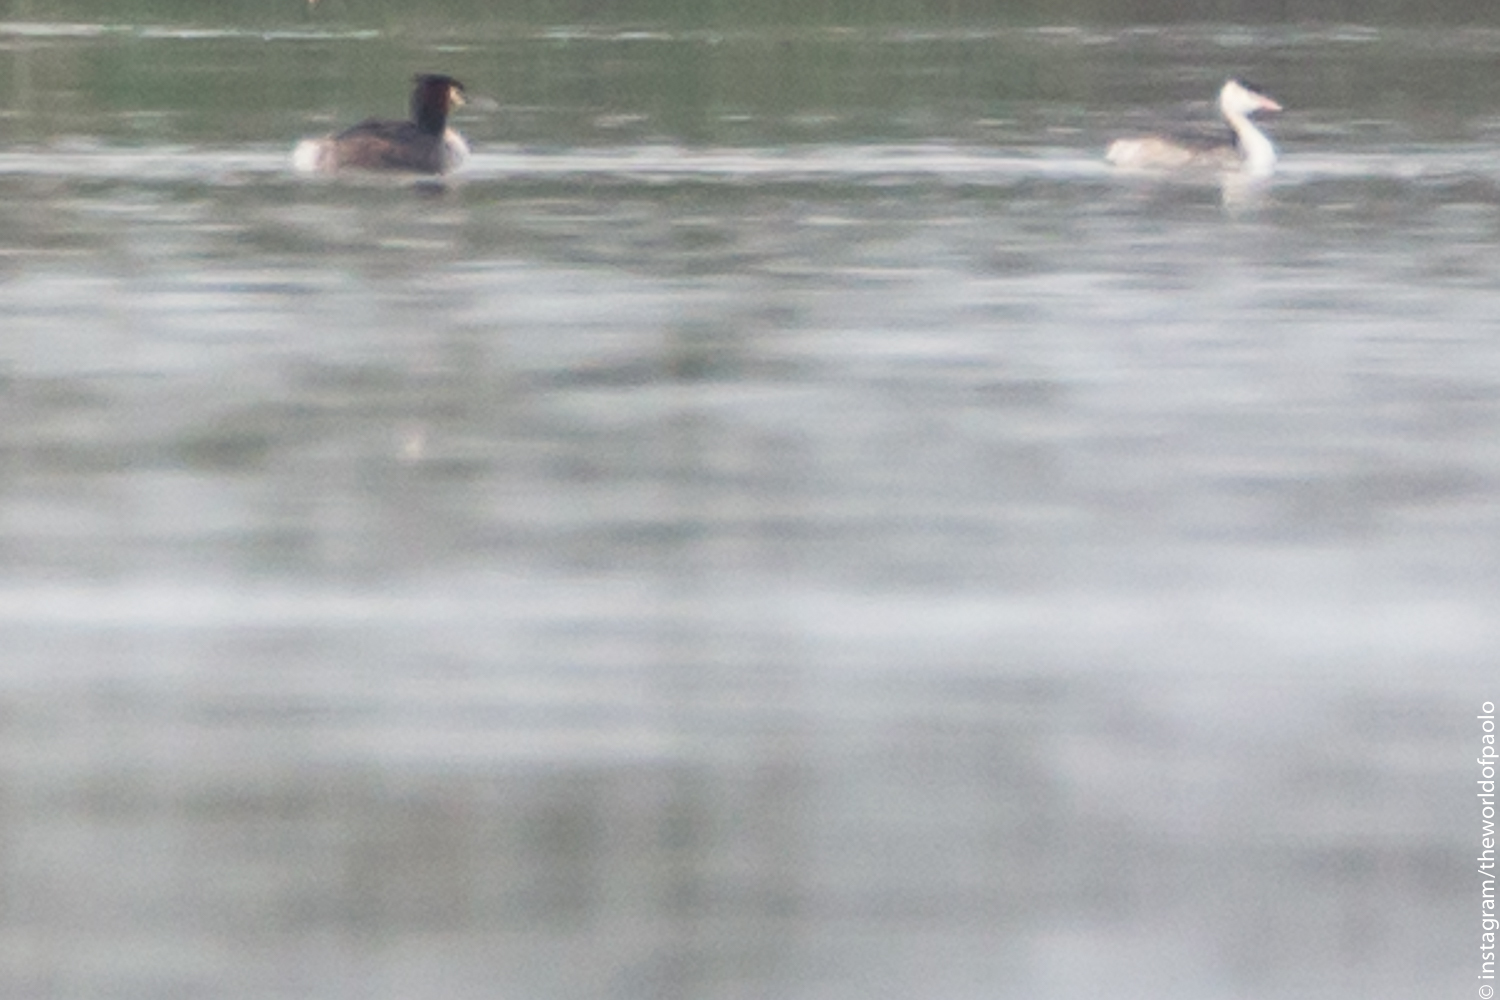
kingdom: Animalia
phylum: Chordata
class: Aves
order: Podicipediformes
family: Podicipedidae
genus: Podiceps
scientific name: Podiceps cristatus
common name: Great crested grebe
